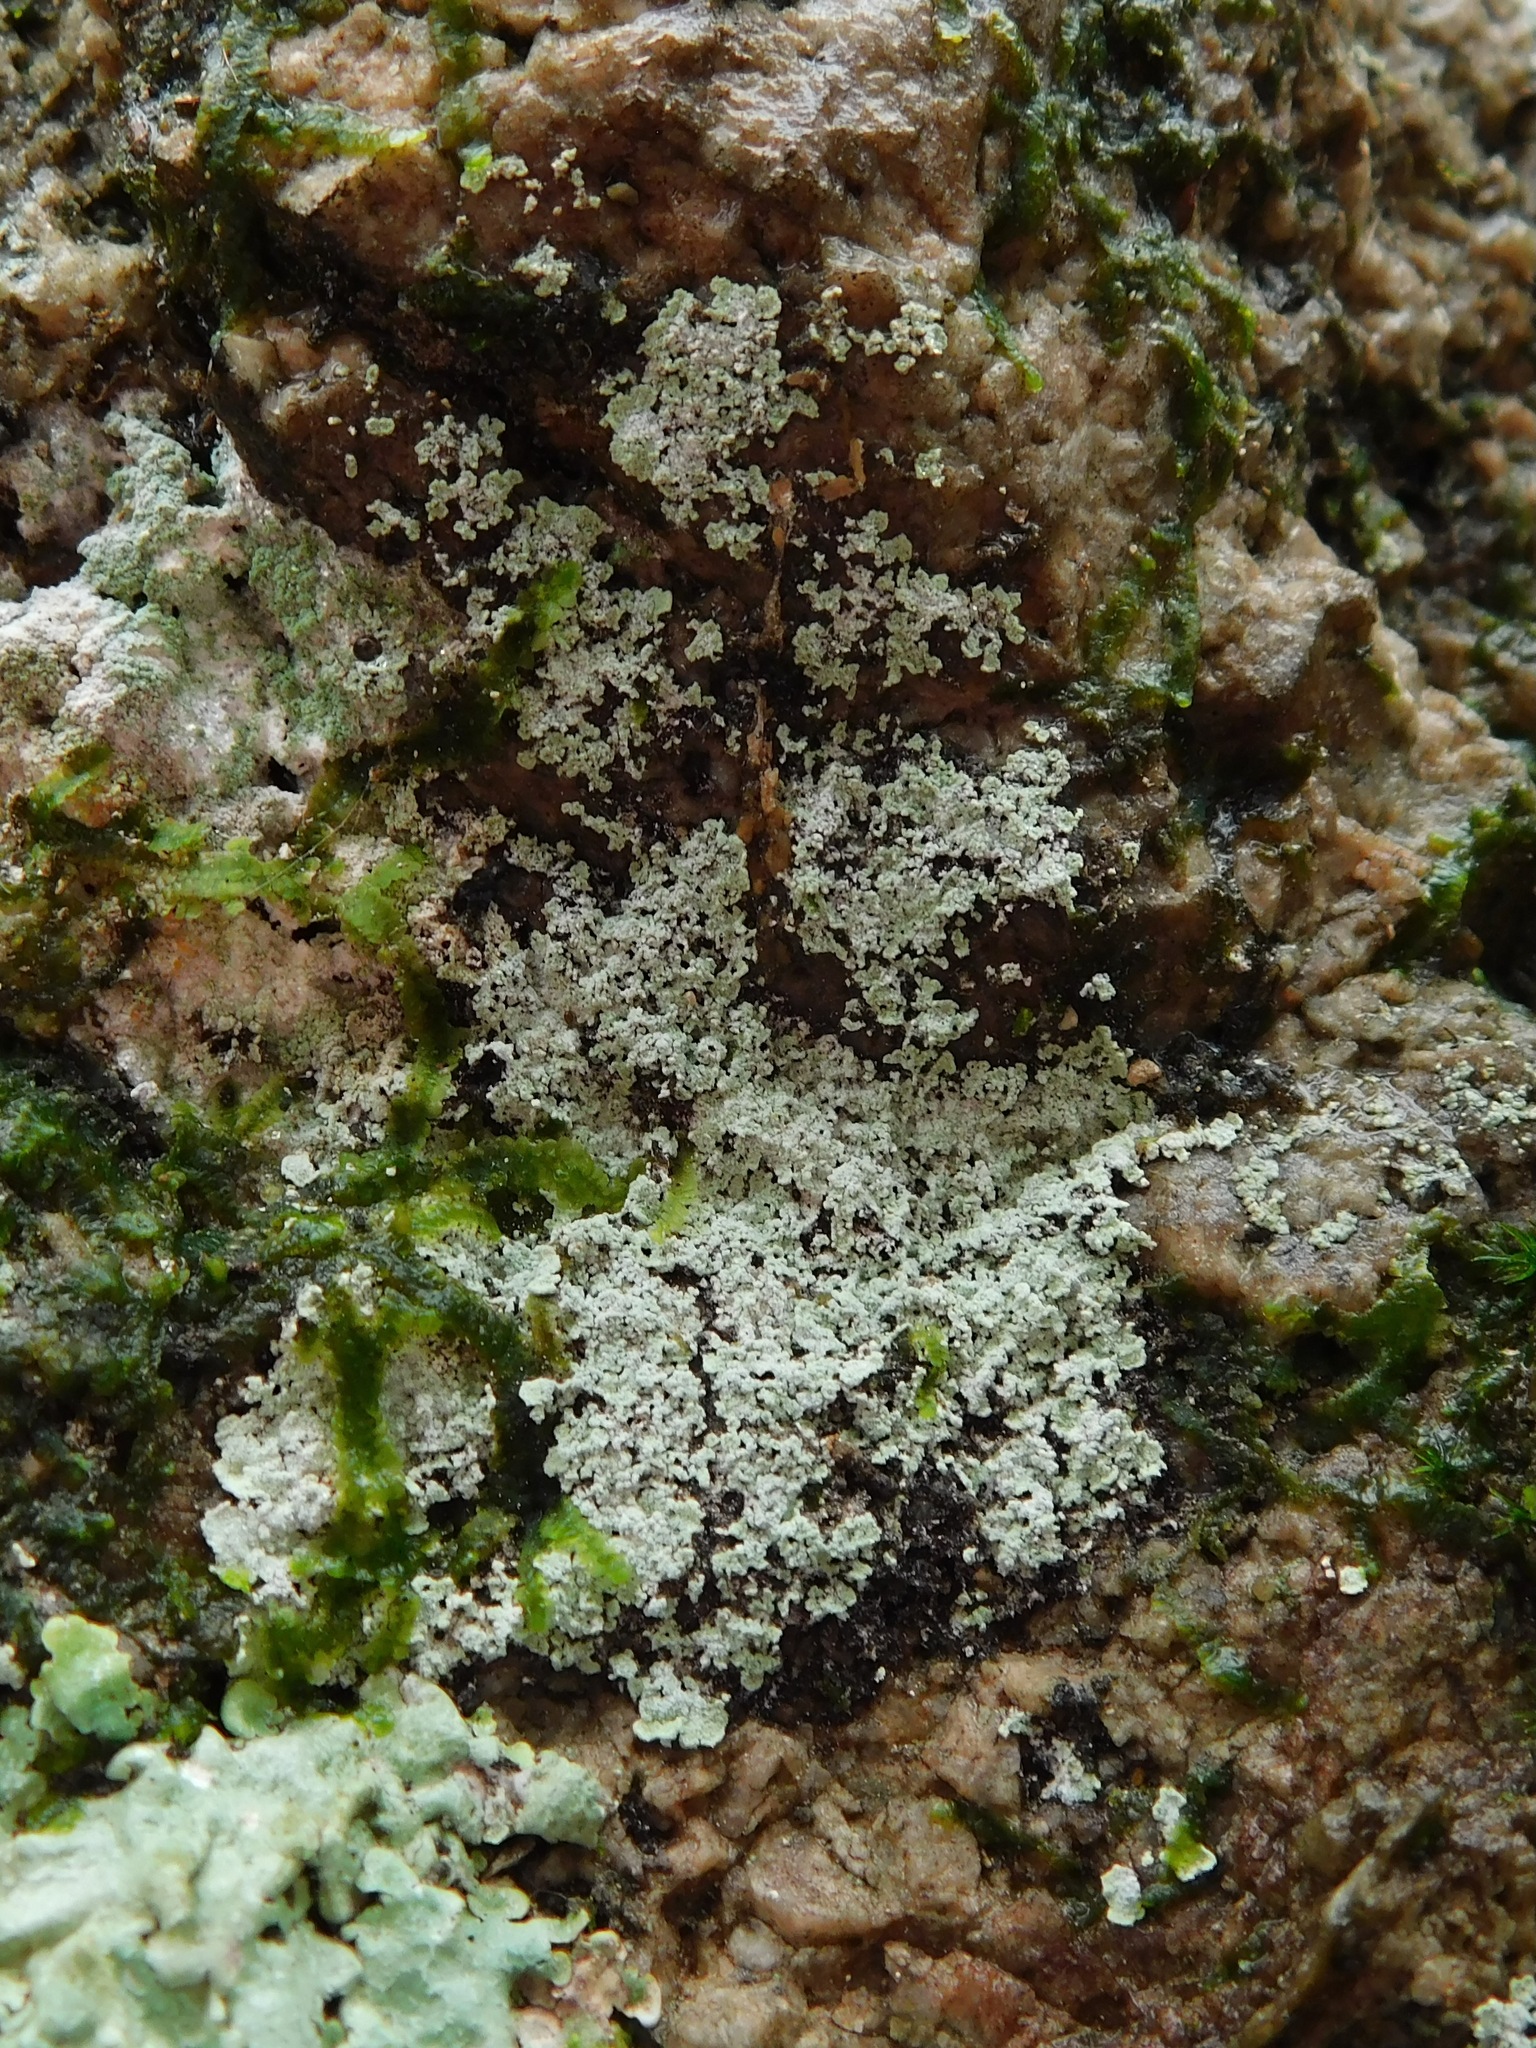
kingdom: Fungi
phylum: Ascomycota
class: Lecanoromycetes
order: Lecanorales
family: Stereocaulaceae
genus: Lepraria
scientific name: Lepraria normandinoides
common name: Elf-ear dust
